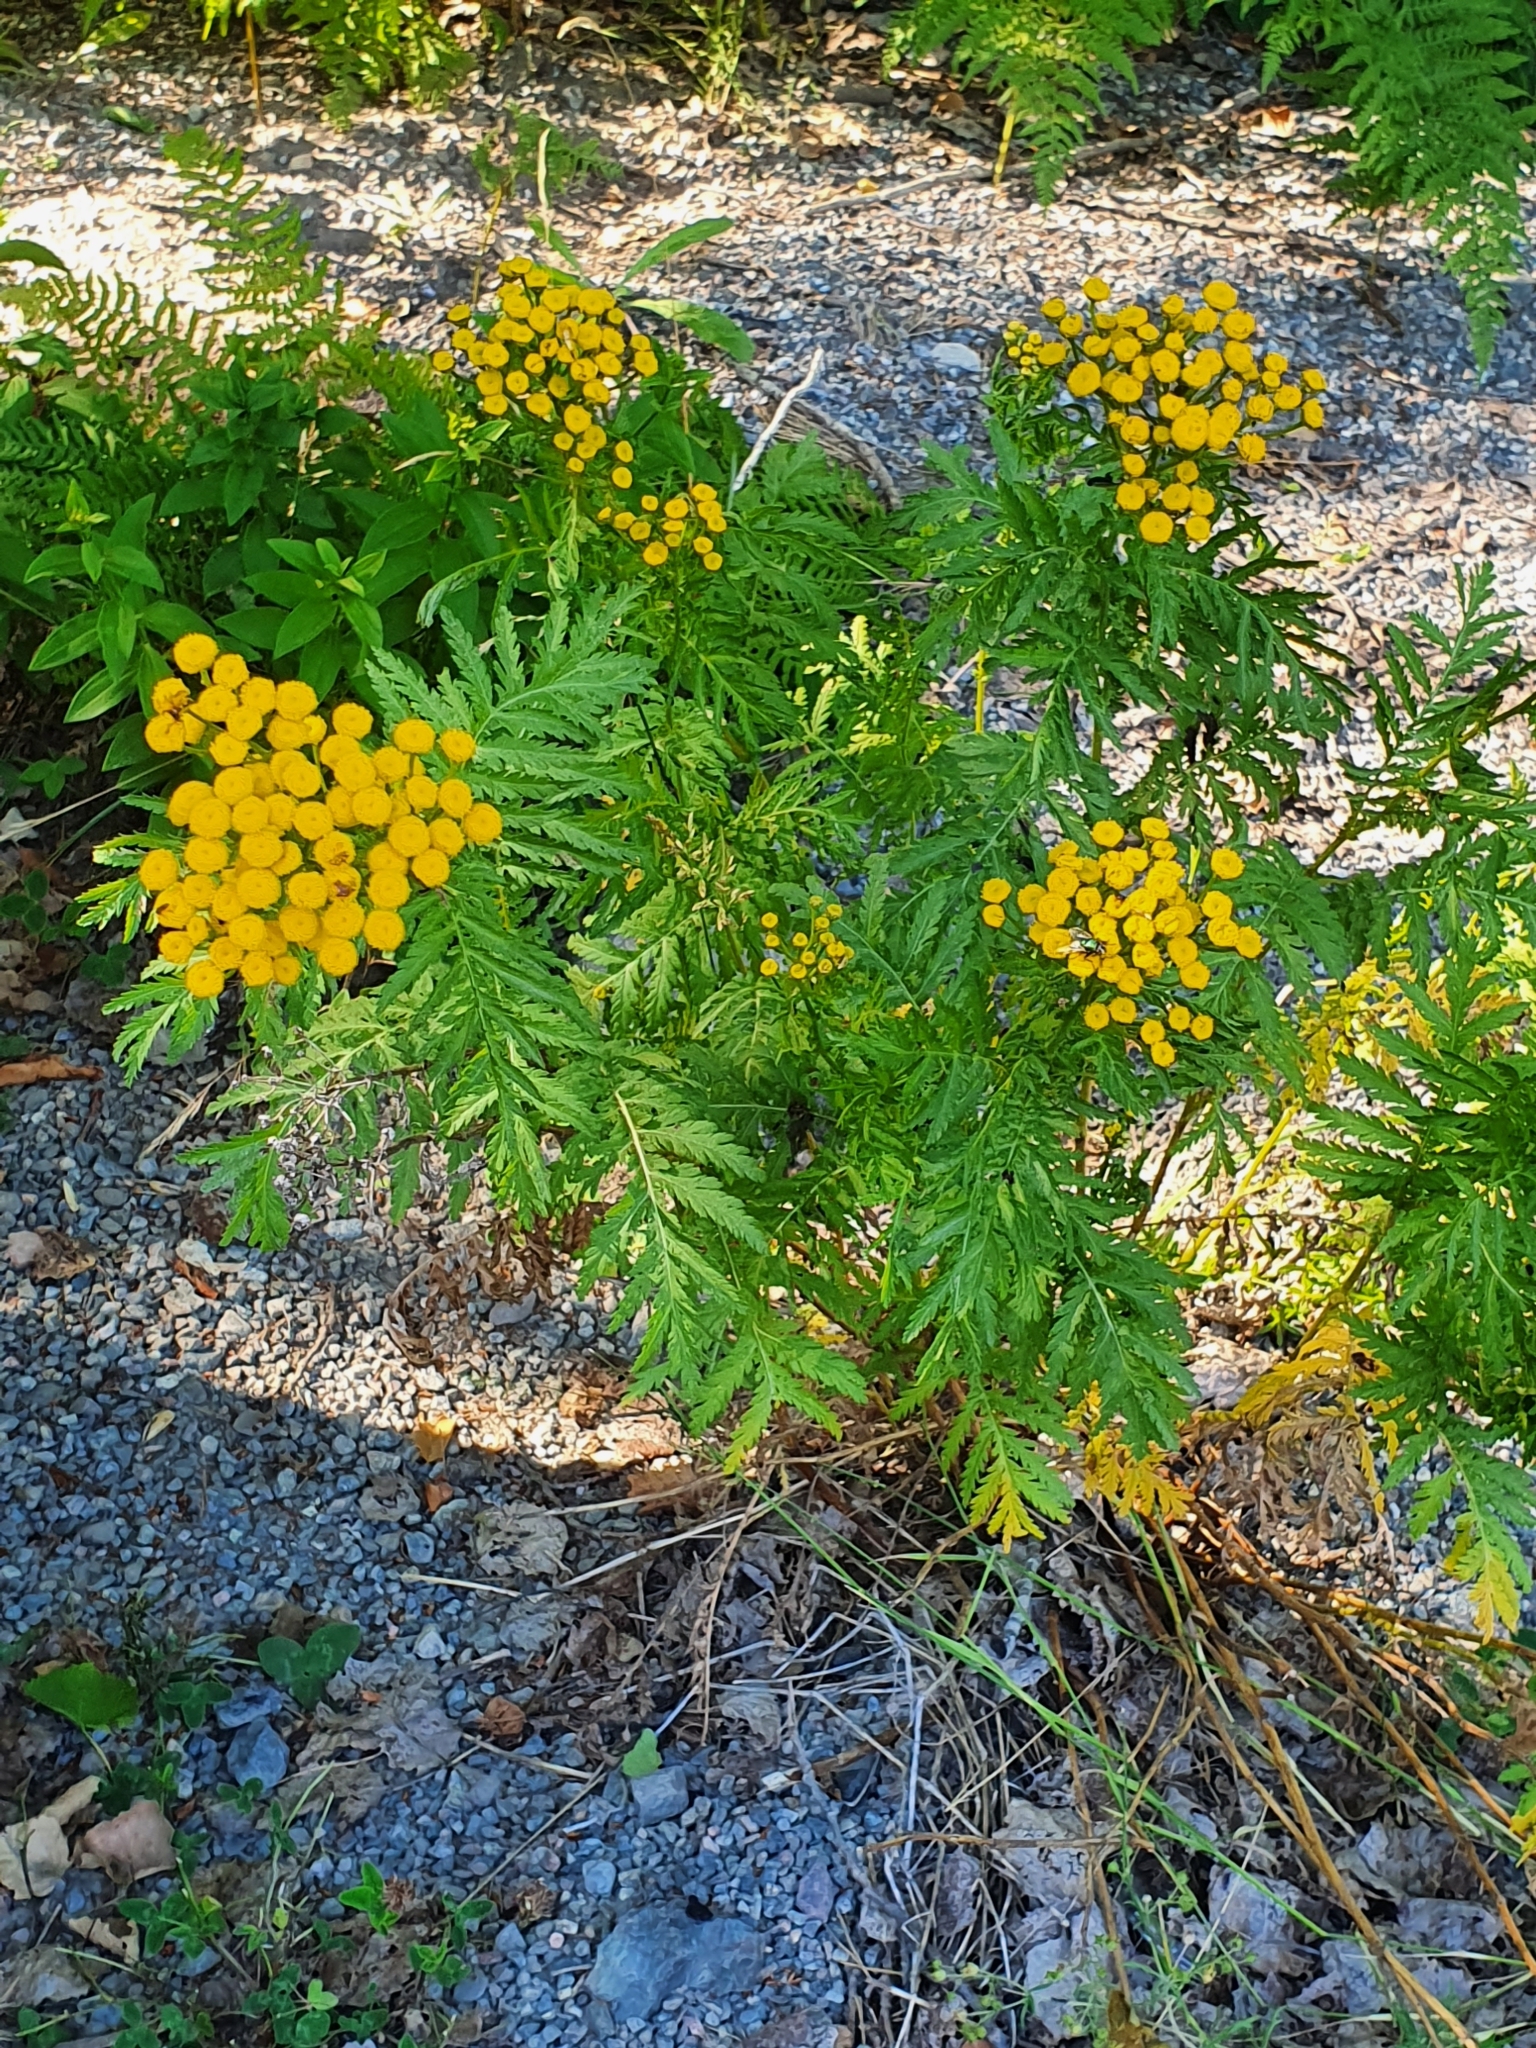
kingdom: Plantae
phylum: Tracheophyta
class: Magnoliopsida
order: Asterales
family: Asteraceae
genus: Tanacetum
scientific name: Tanacetum vulgare
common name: Common tansy
